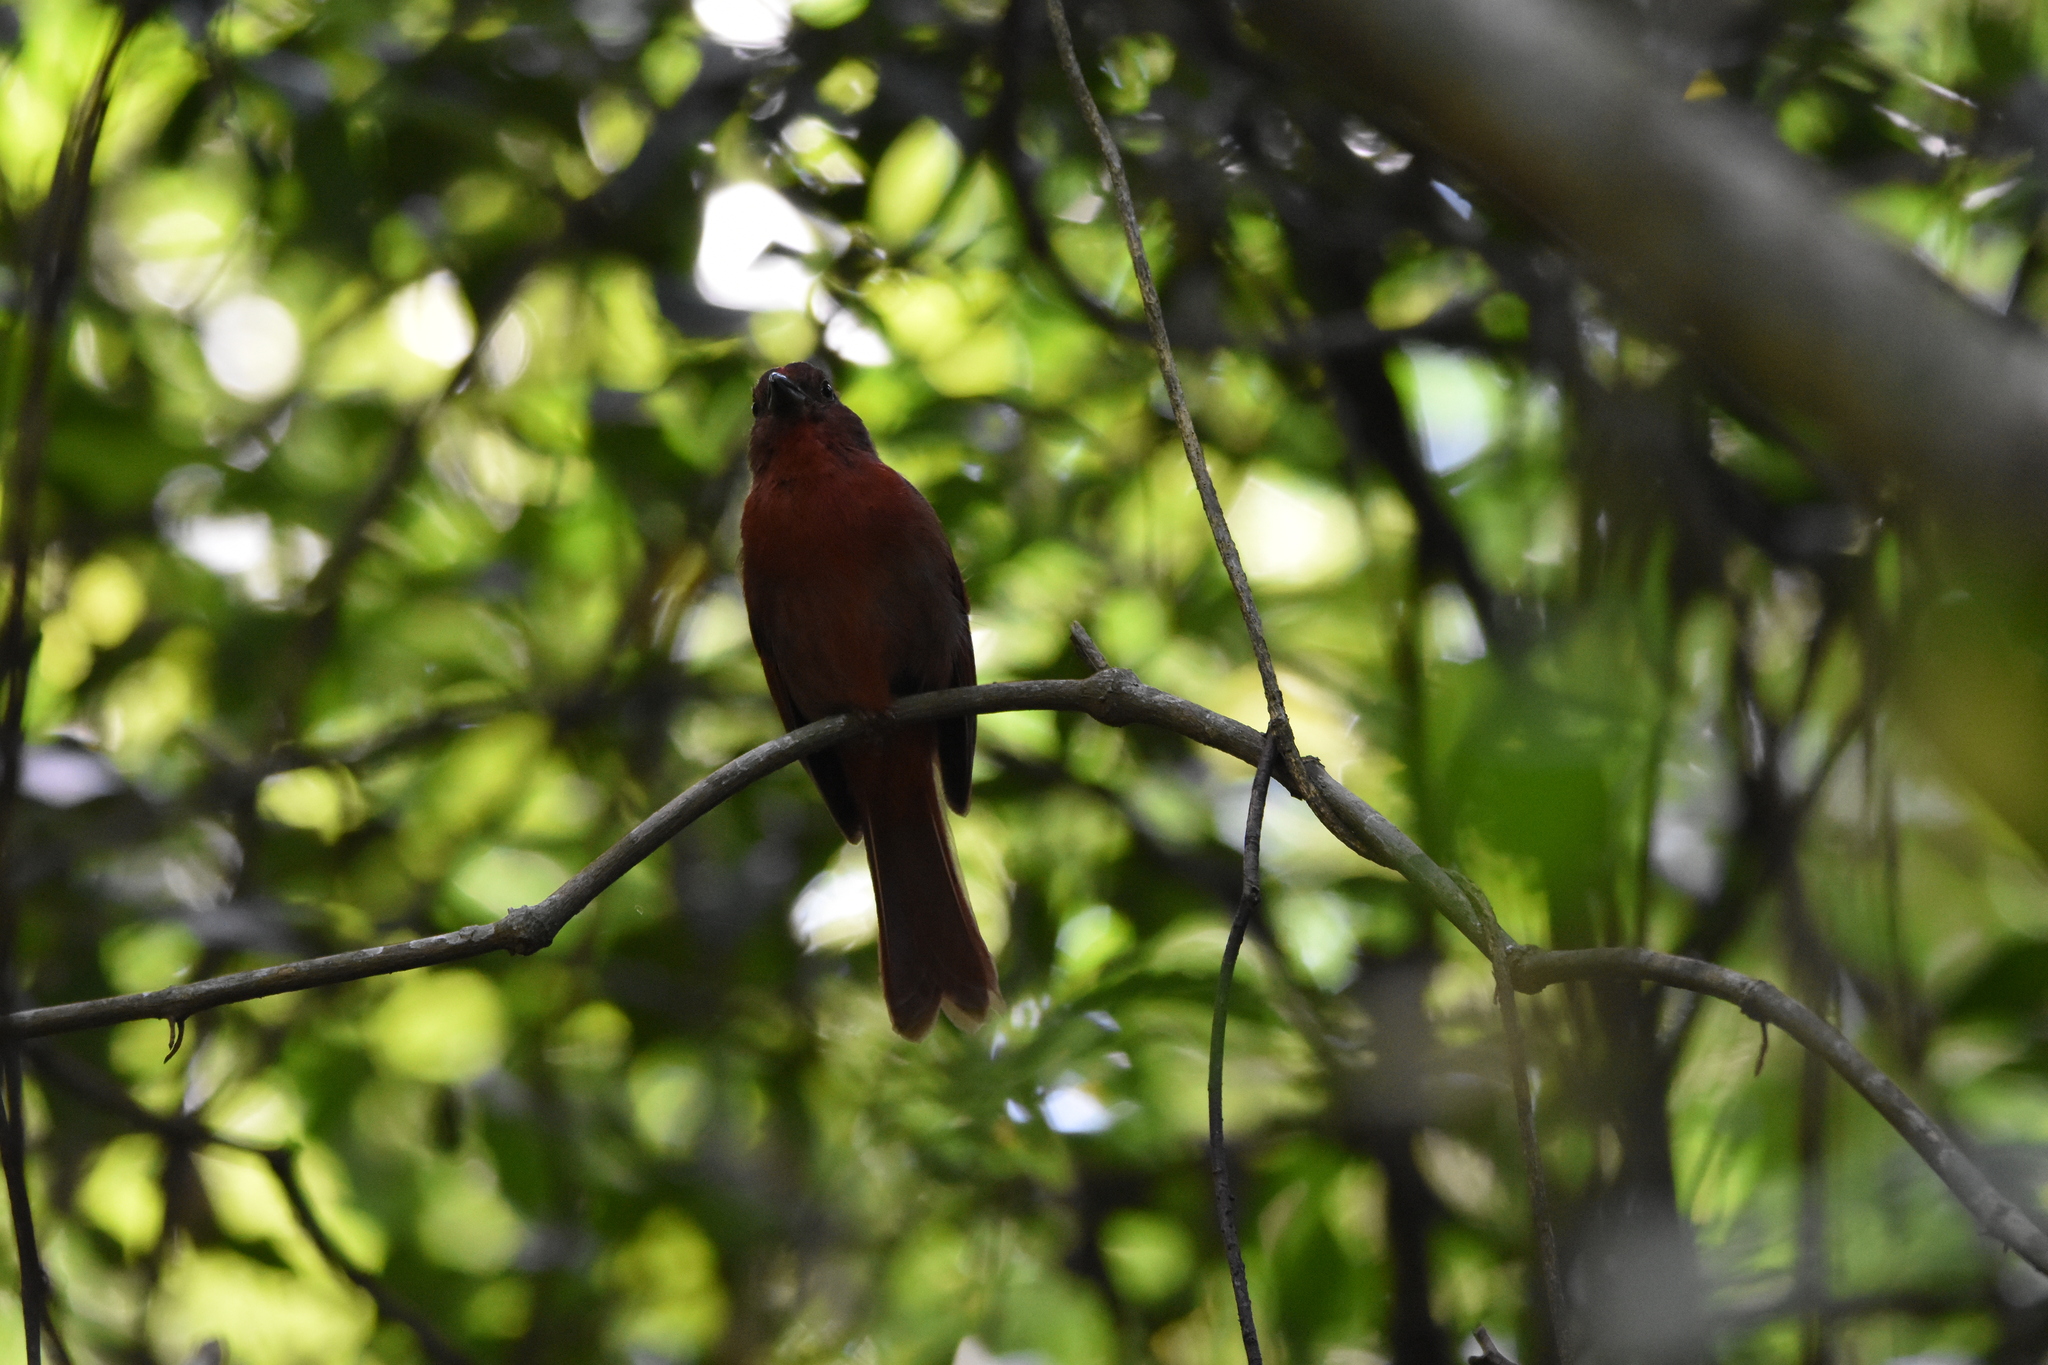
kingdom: Animalia
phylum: Chordata
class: Aves
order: Passeriformes
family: Cardinalidae
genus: Habia
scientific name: Habia rubica
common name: Red-crowned ant-tanager
